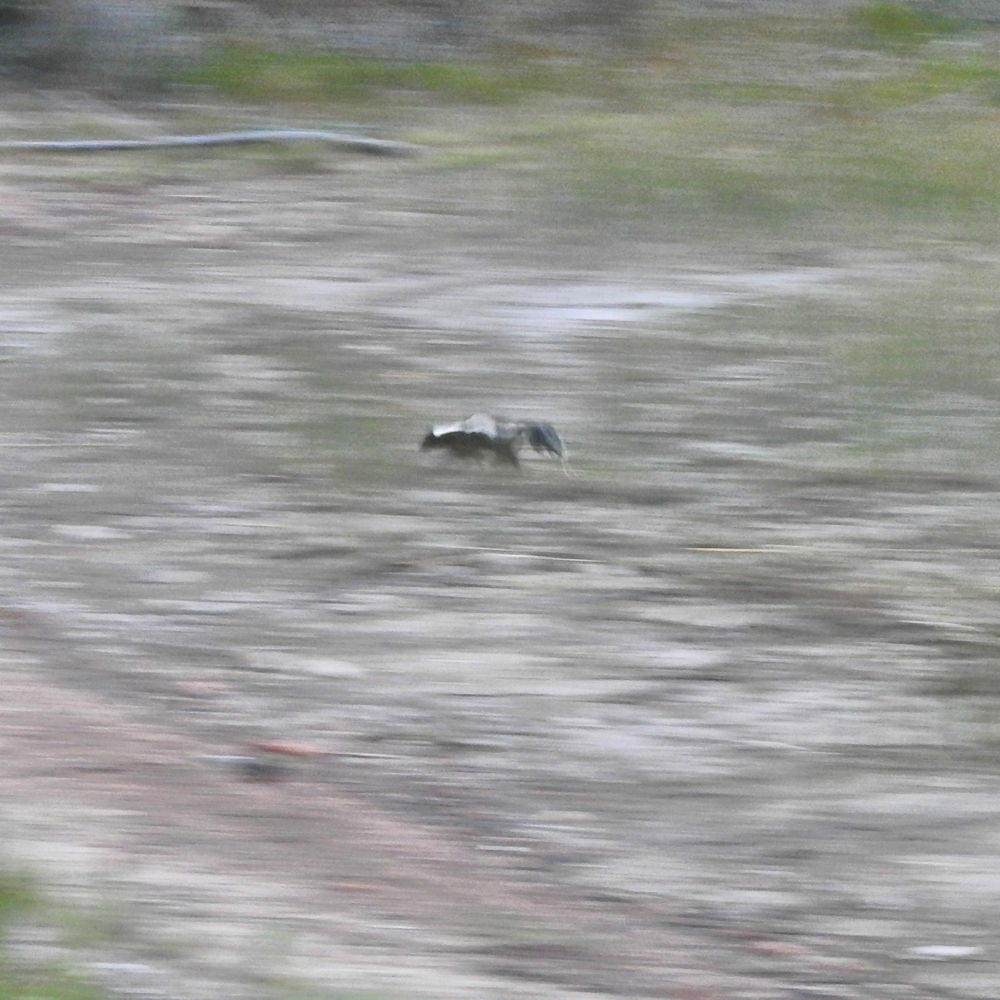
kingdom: Animalia
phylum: Chordata
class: Mammalia
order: Carnivora
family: Mephitidae
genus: Mephitis
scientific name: Mephitis mephitis
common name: Striped skunk
